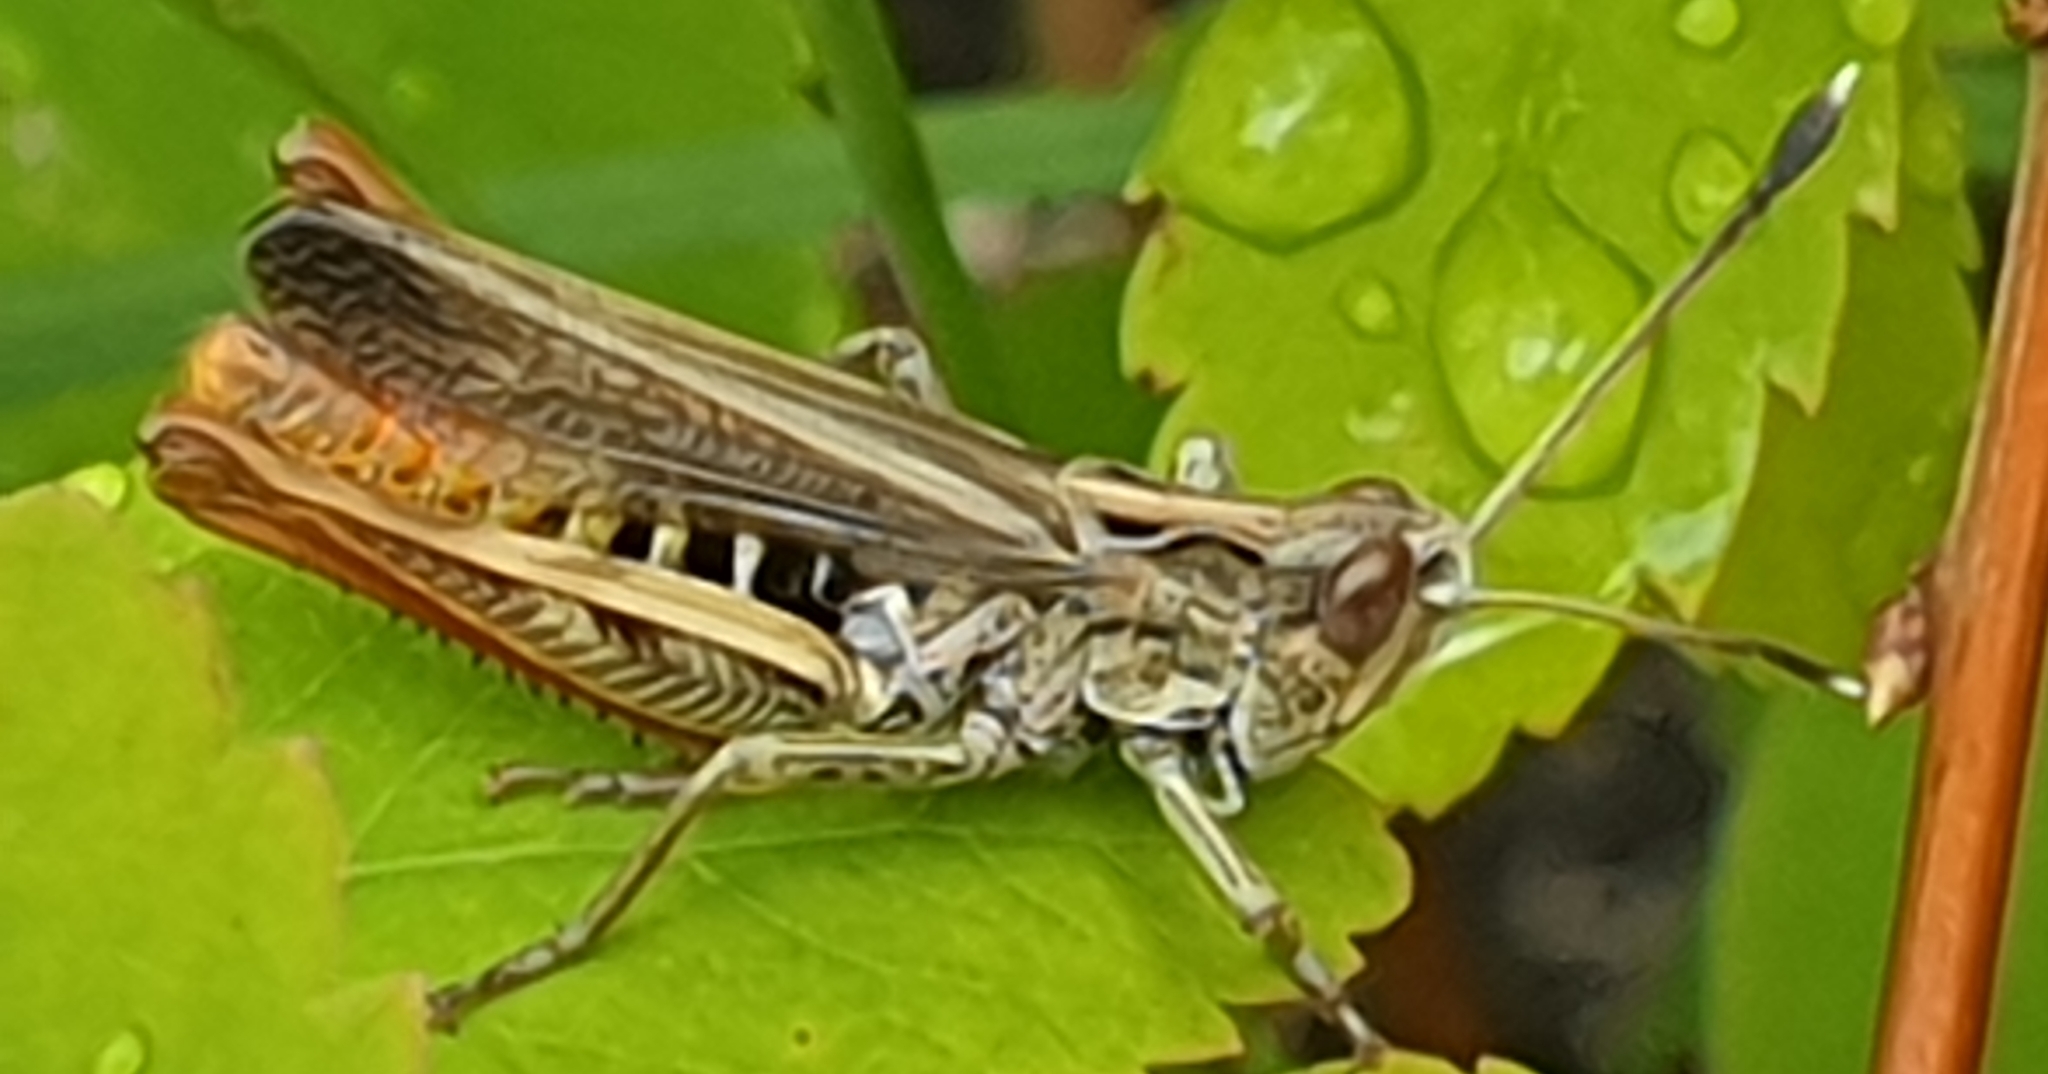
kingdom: Animalia
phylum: Arthropoda
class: Insecta
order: Orthoptera
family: Acrididae
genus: Gomphocerippus
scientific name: Gomphocerippus rufus
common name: Rufous grasshopper
